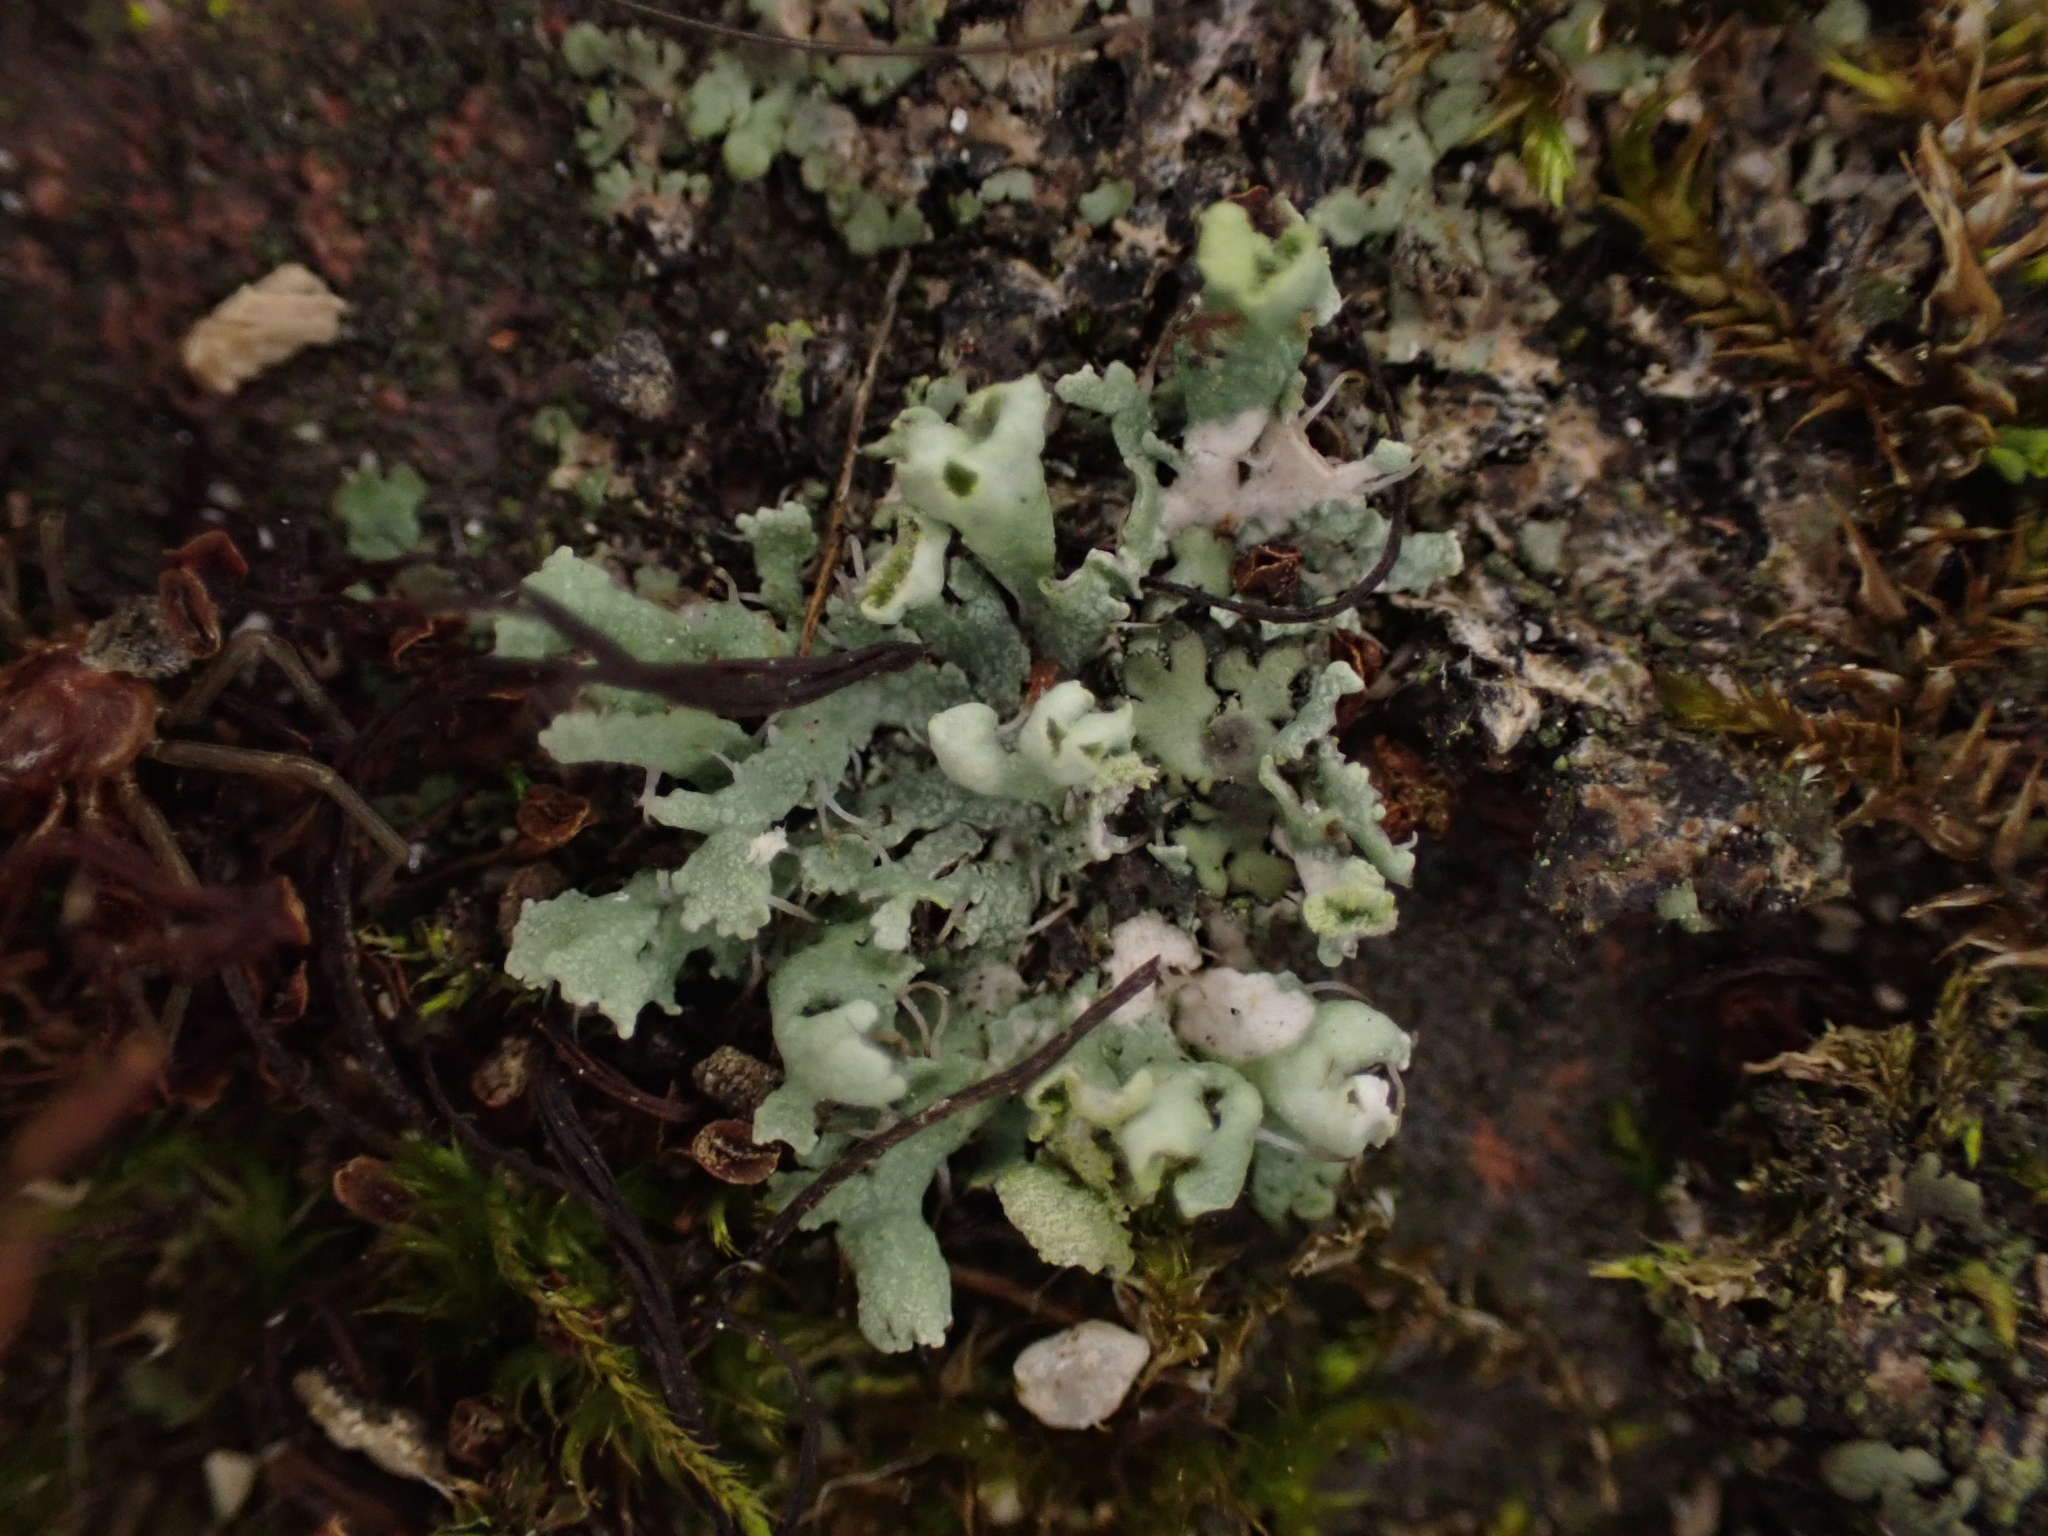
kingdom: Fungi
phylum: Ascomycota
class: Lecanoromycetes
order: Caliciales
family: Physciaceae
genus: Physcia
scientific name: Physcia adscendens
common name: Hooded rosette lichen
